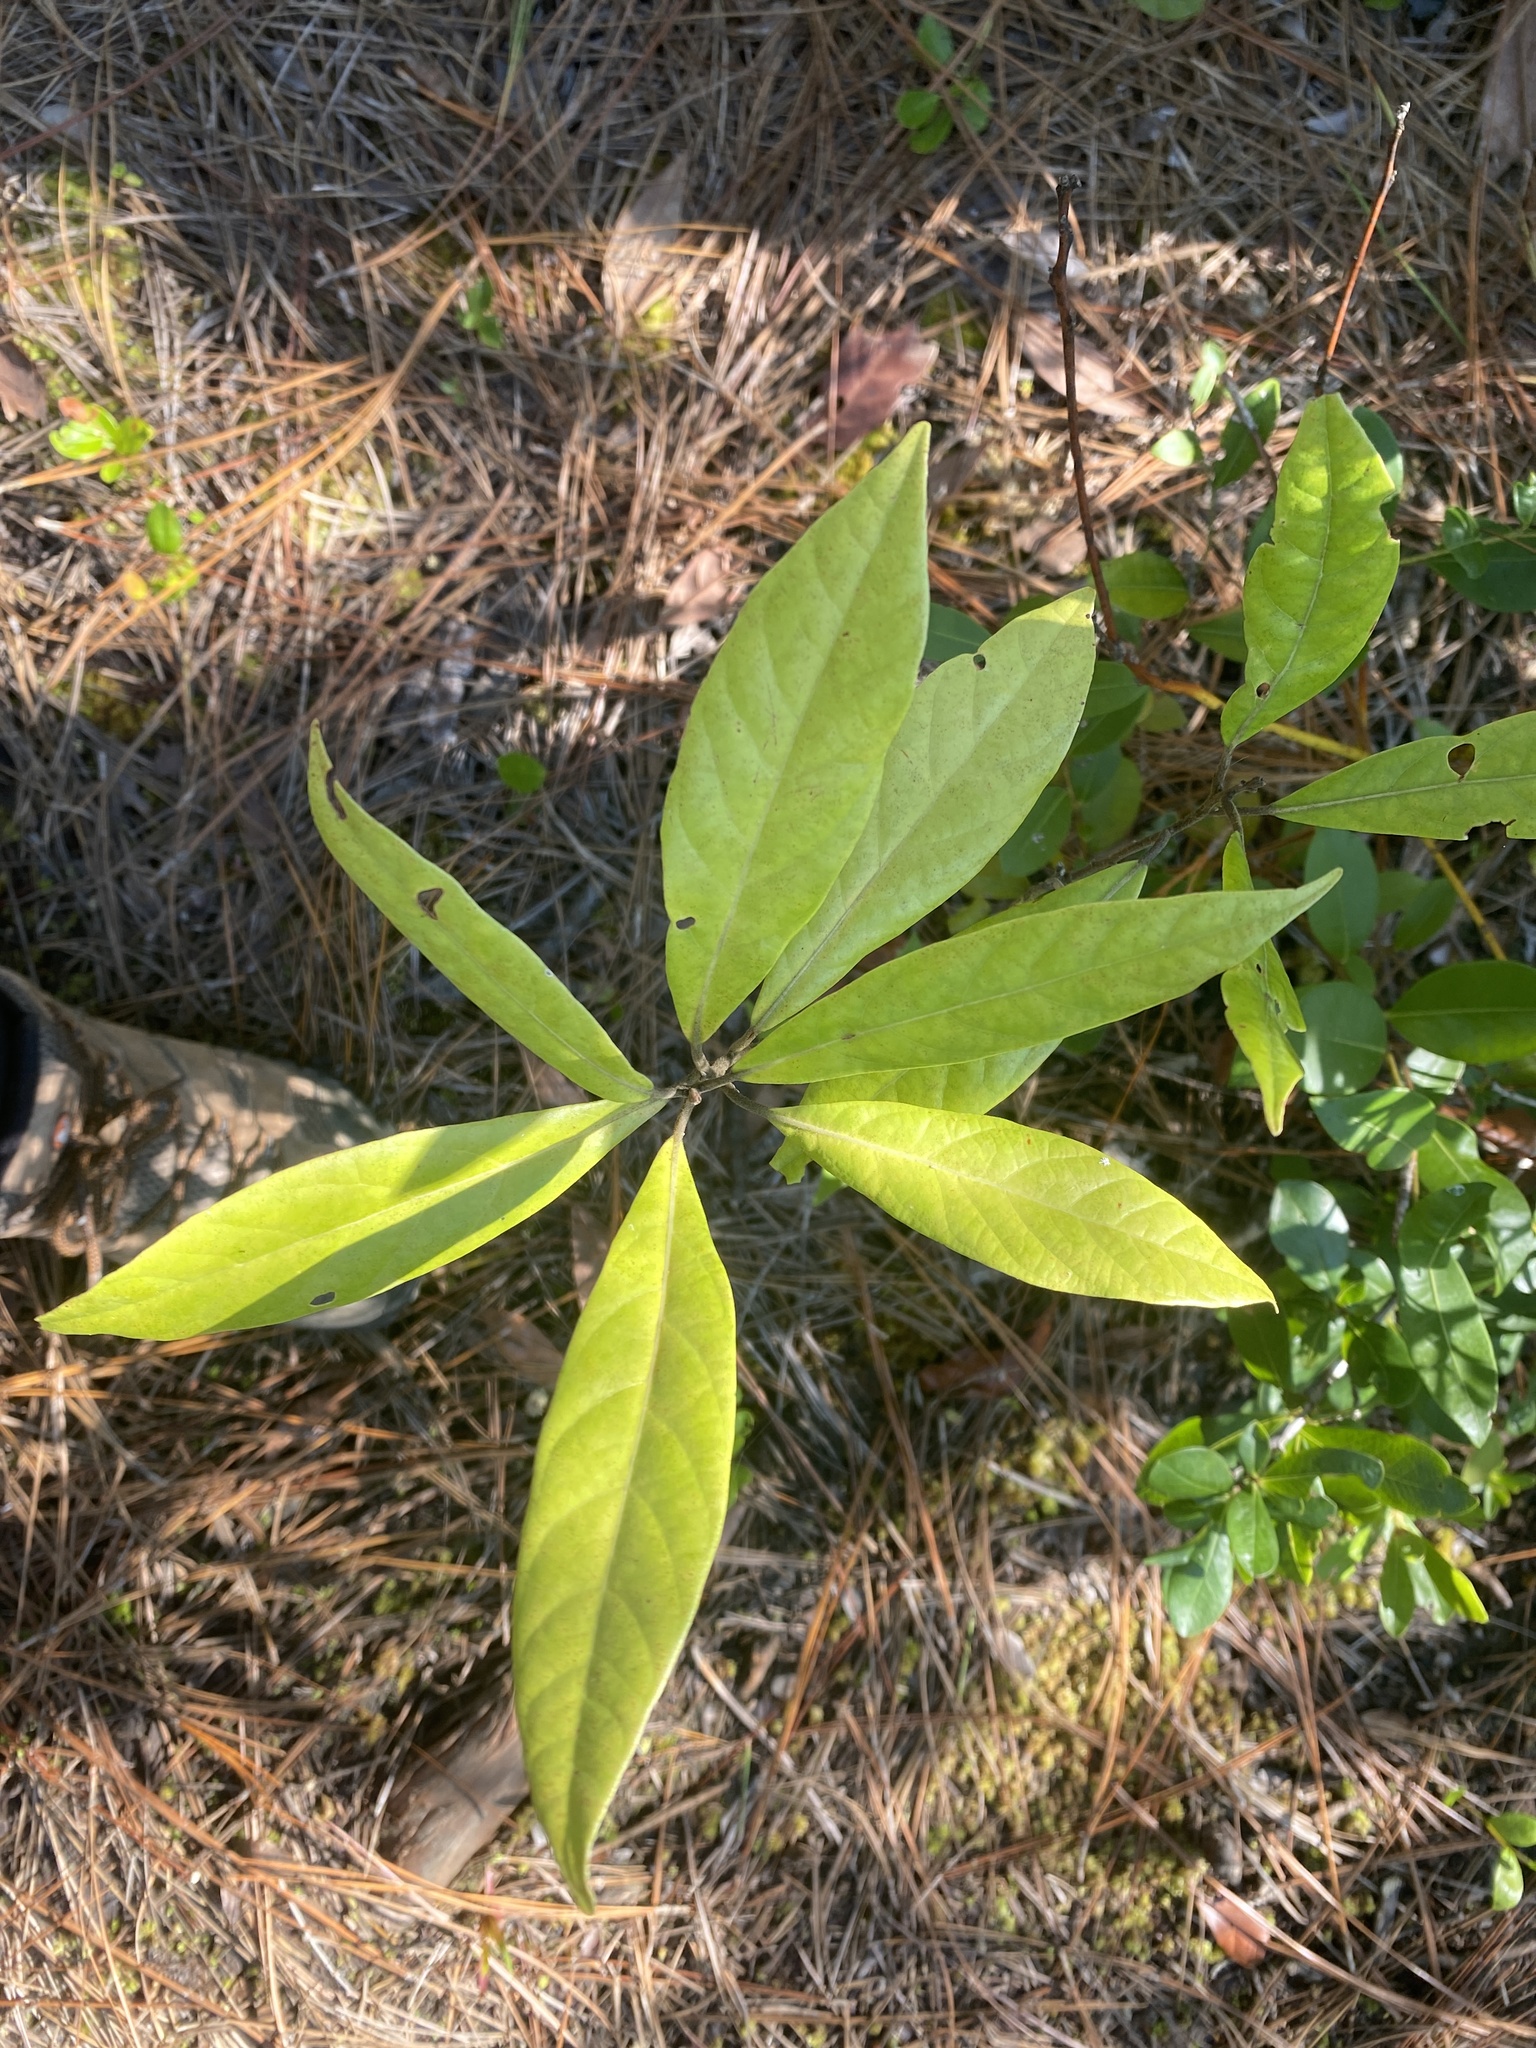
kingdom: Plantae
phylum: Tracheophyta
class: Magnoliopsida
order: Laurales
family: Lauraceae
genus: Persea
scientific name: Persea palustris
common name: Swampbay
